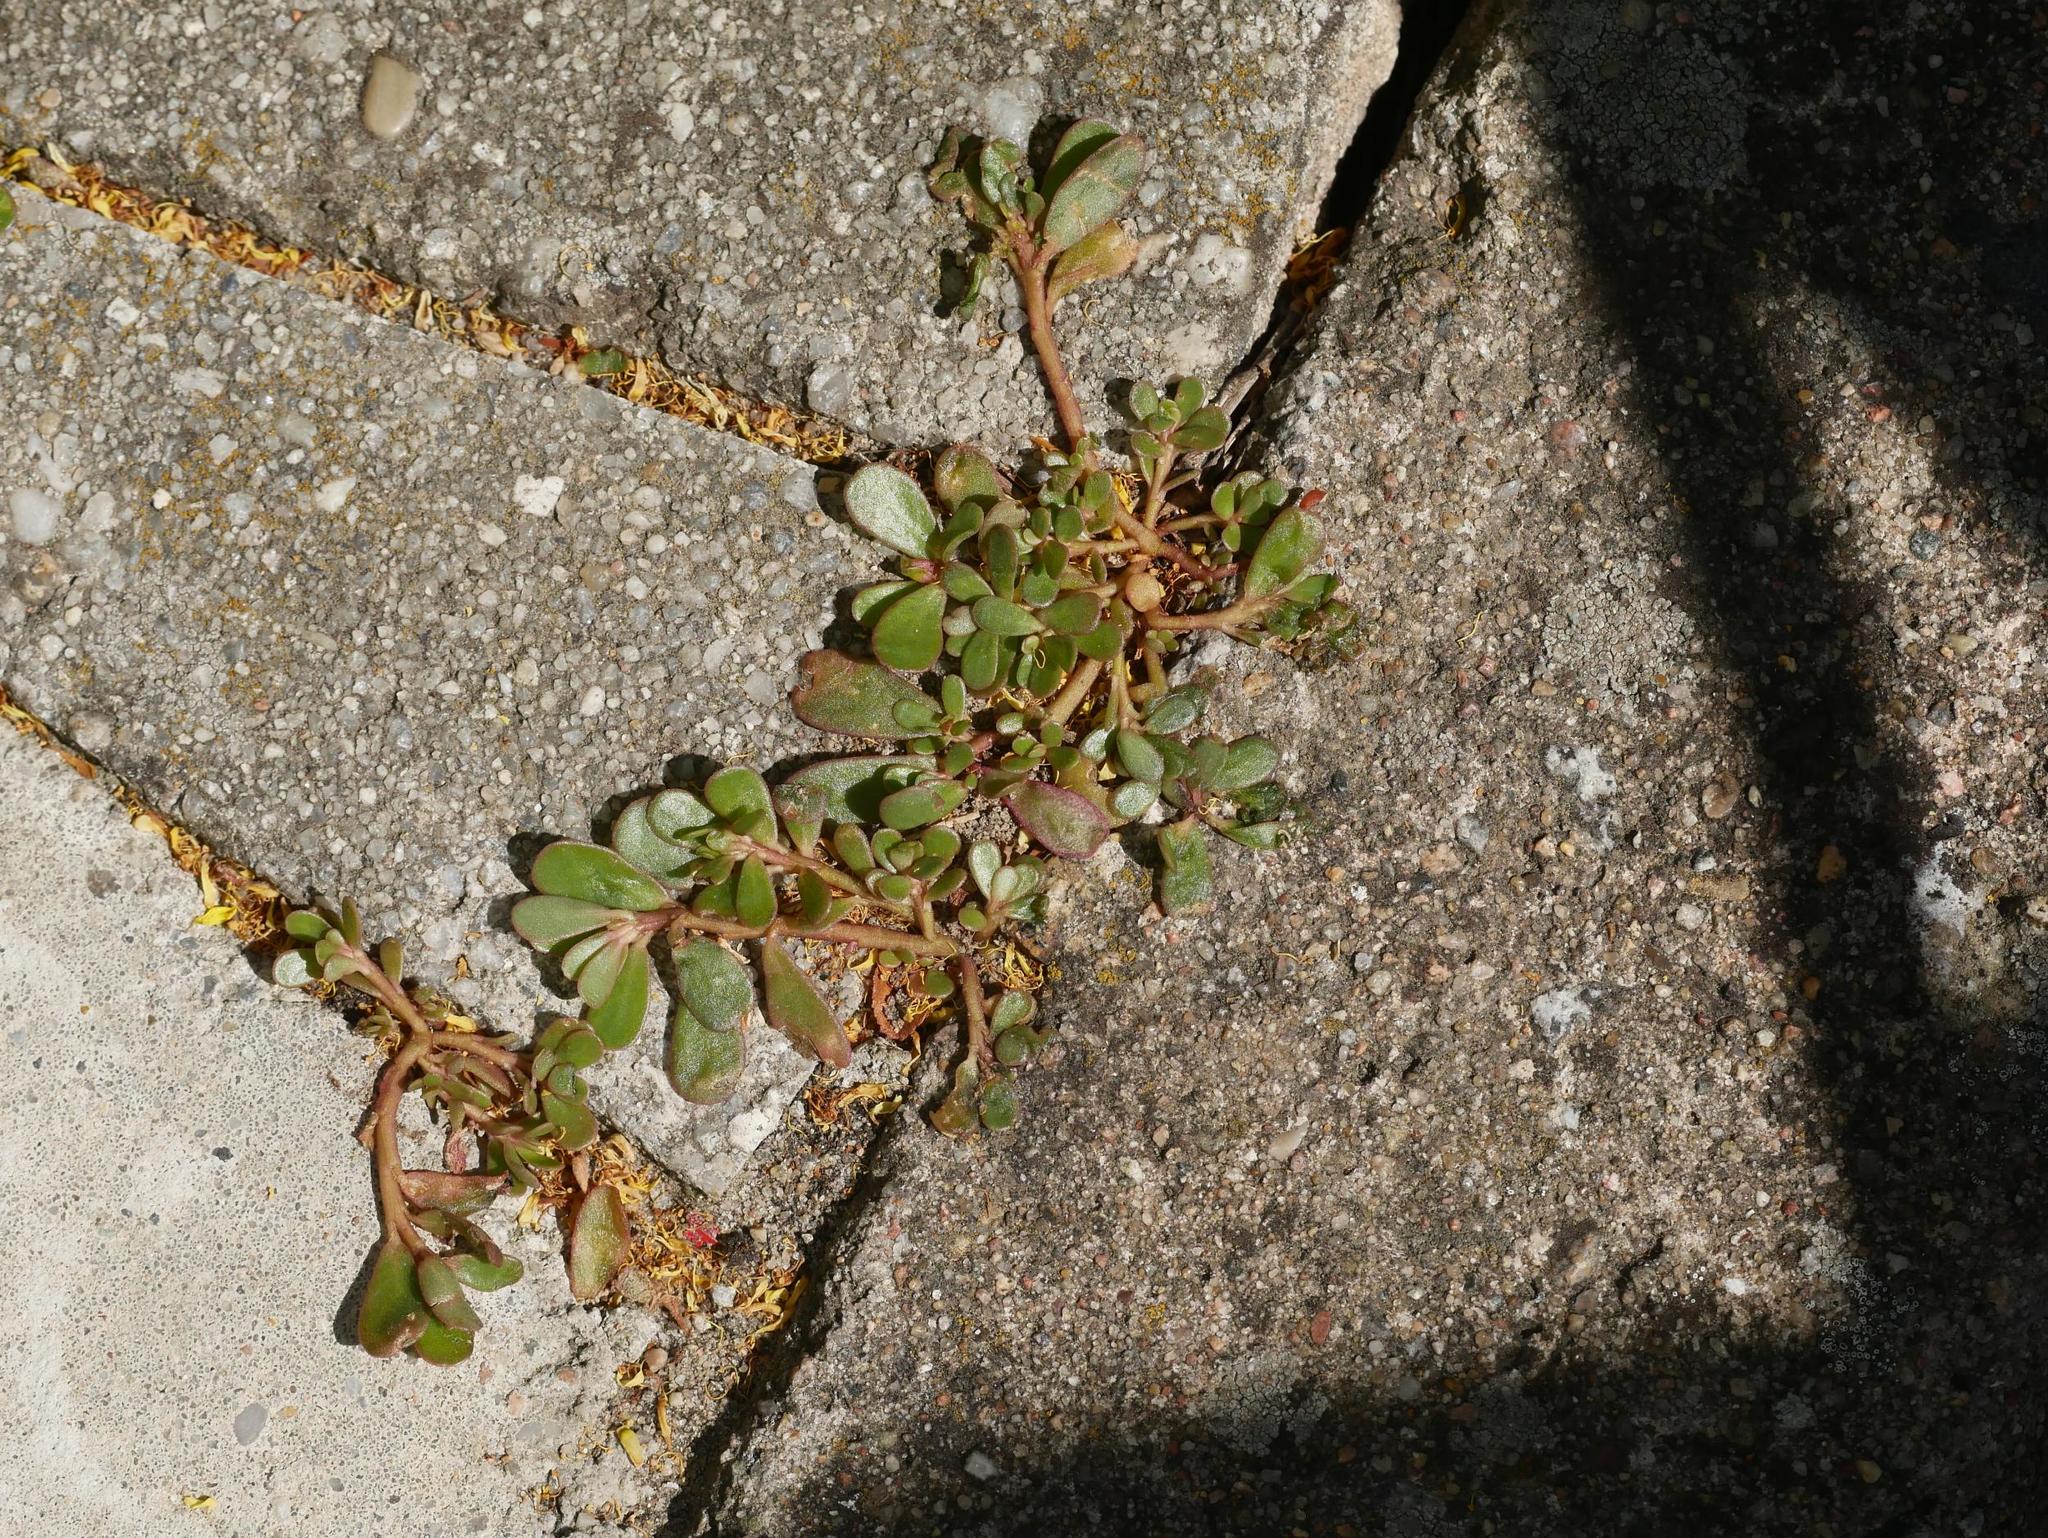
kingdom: Plantae
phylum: Tracheophyta
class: Magnoliopsida
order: Caryophyllales
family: Portulacaceae
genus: Portulaca
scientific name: Portulaca oleracea
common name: Common purslane
